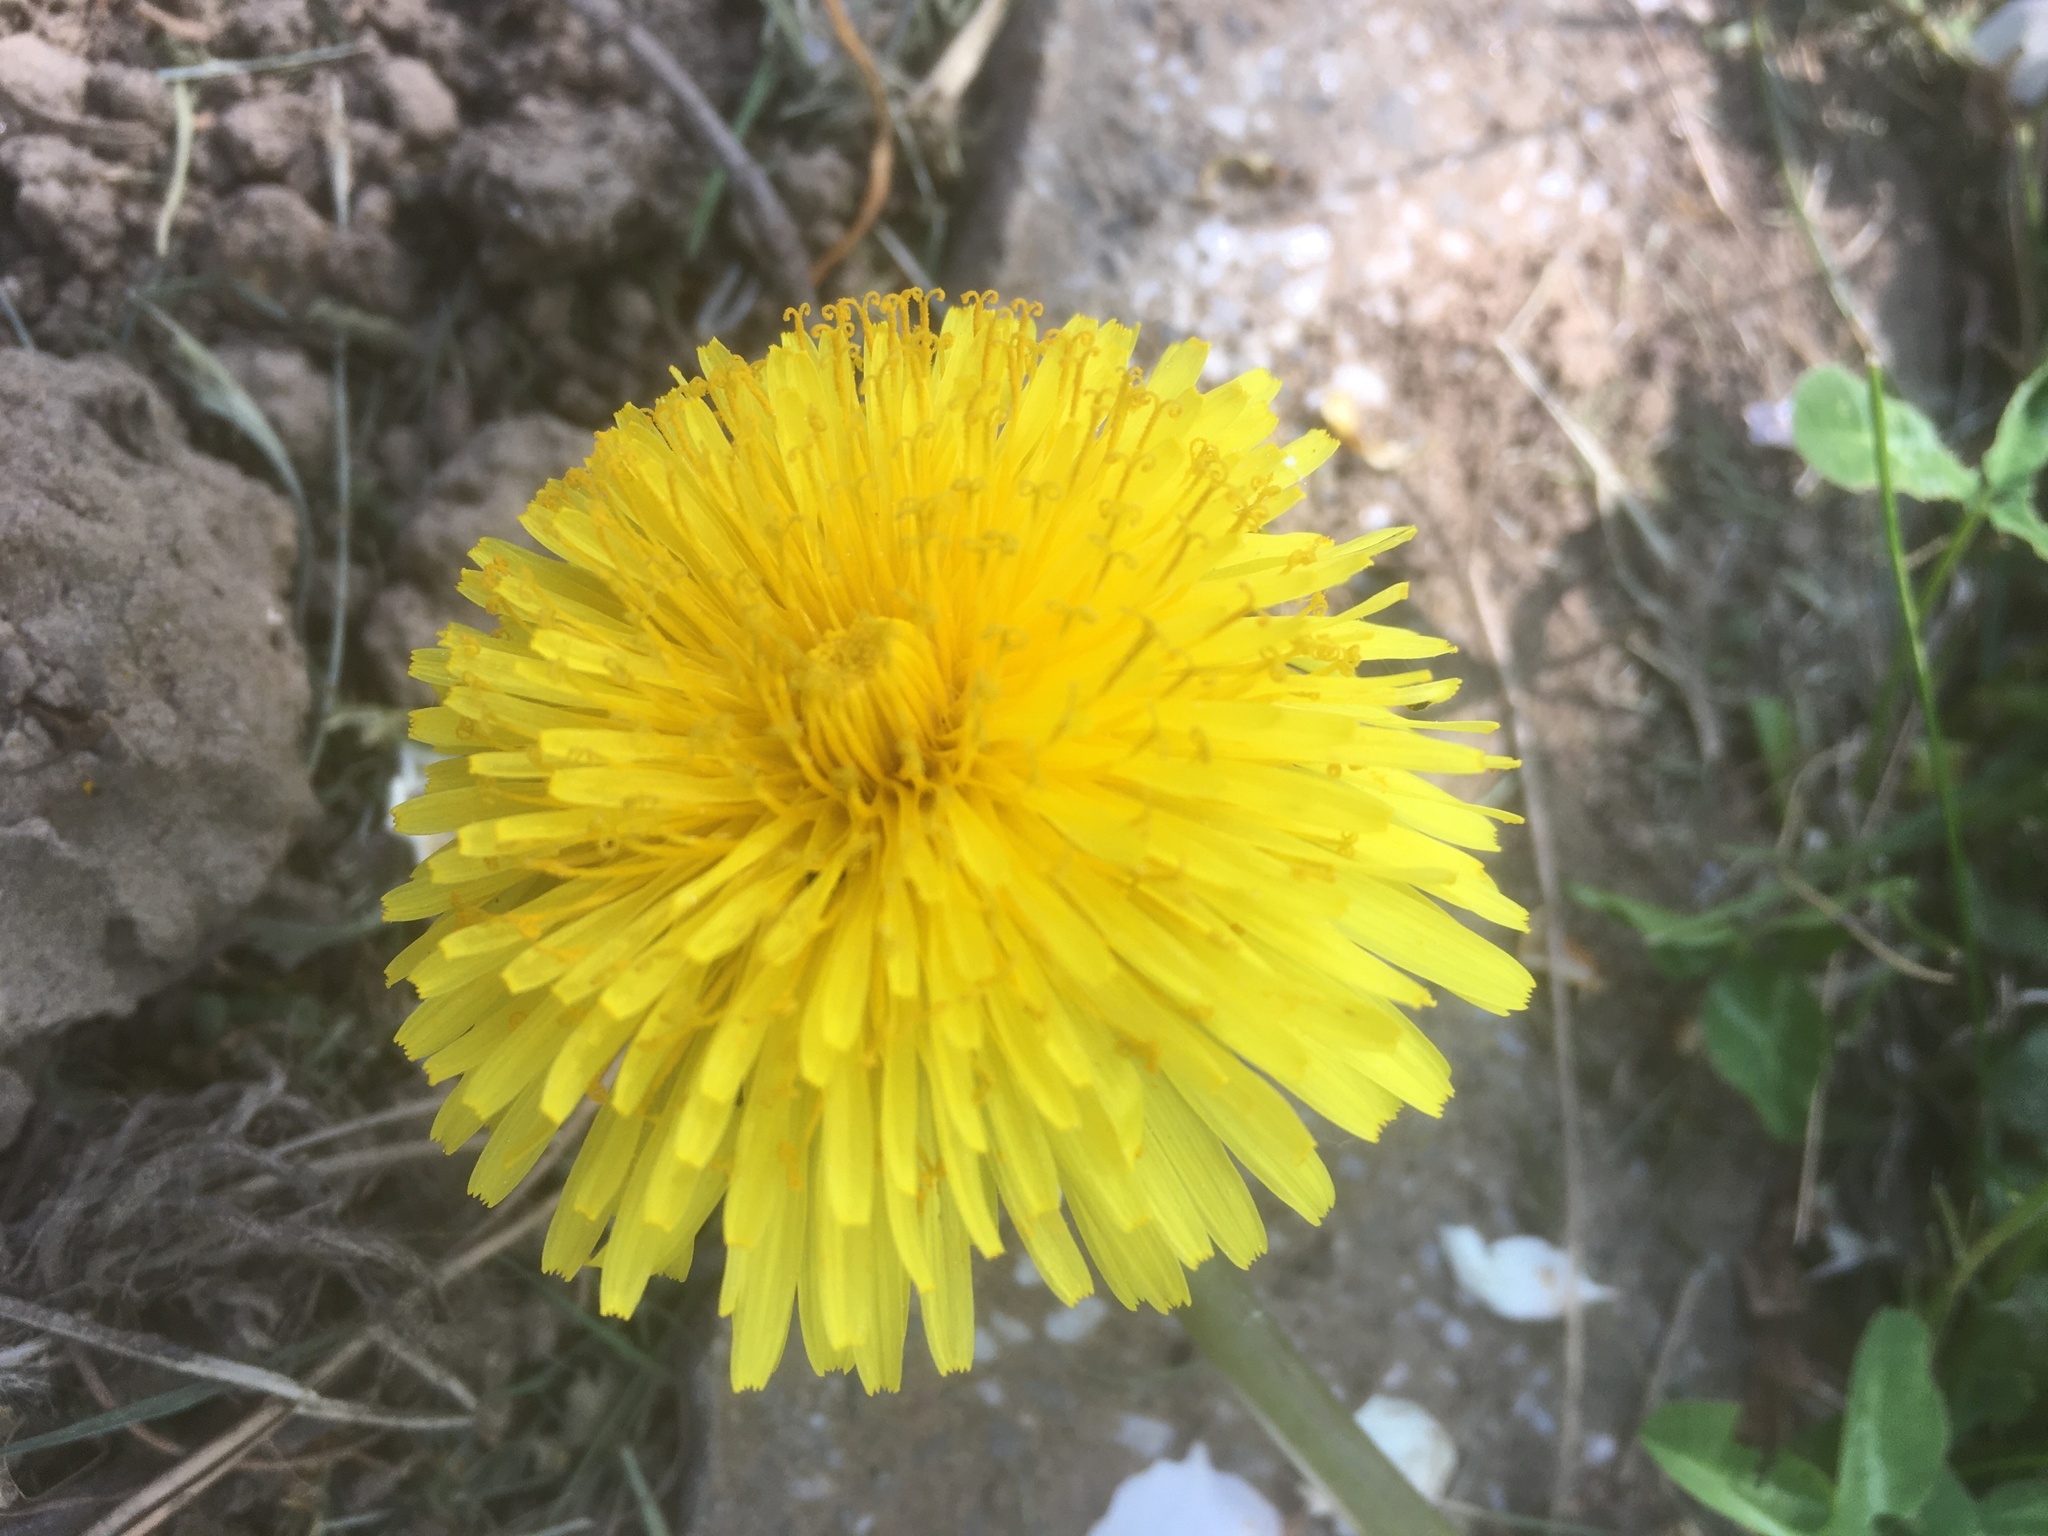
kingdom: Plantae
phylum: Tracheophyta
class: Magnoliopsida
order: Asterales
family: Asteraceae
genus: Taraxacum
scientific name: Taraxacum officinale
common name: Common dandelion
